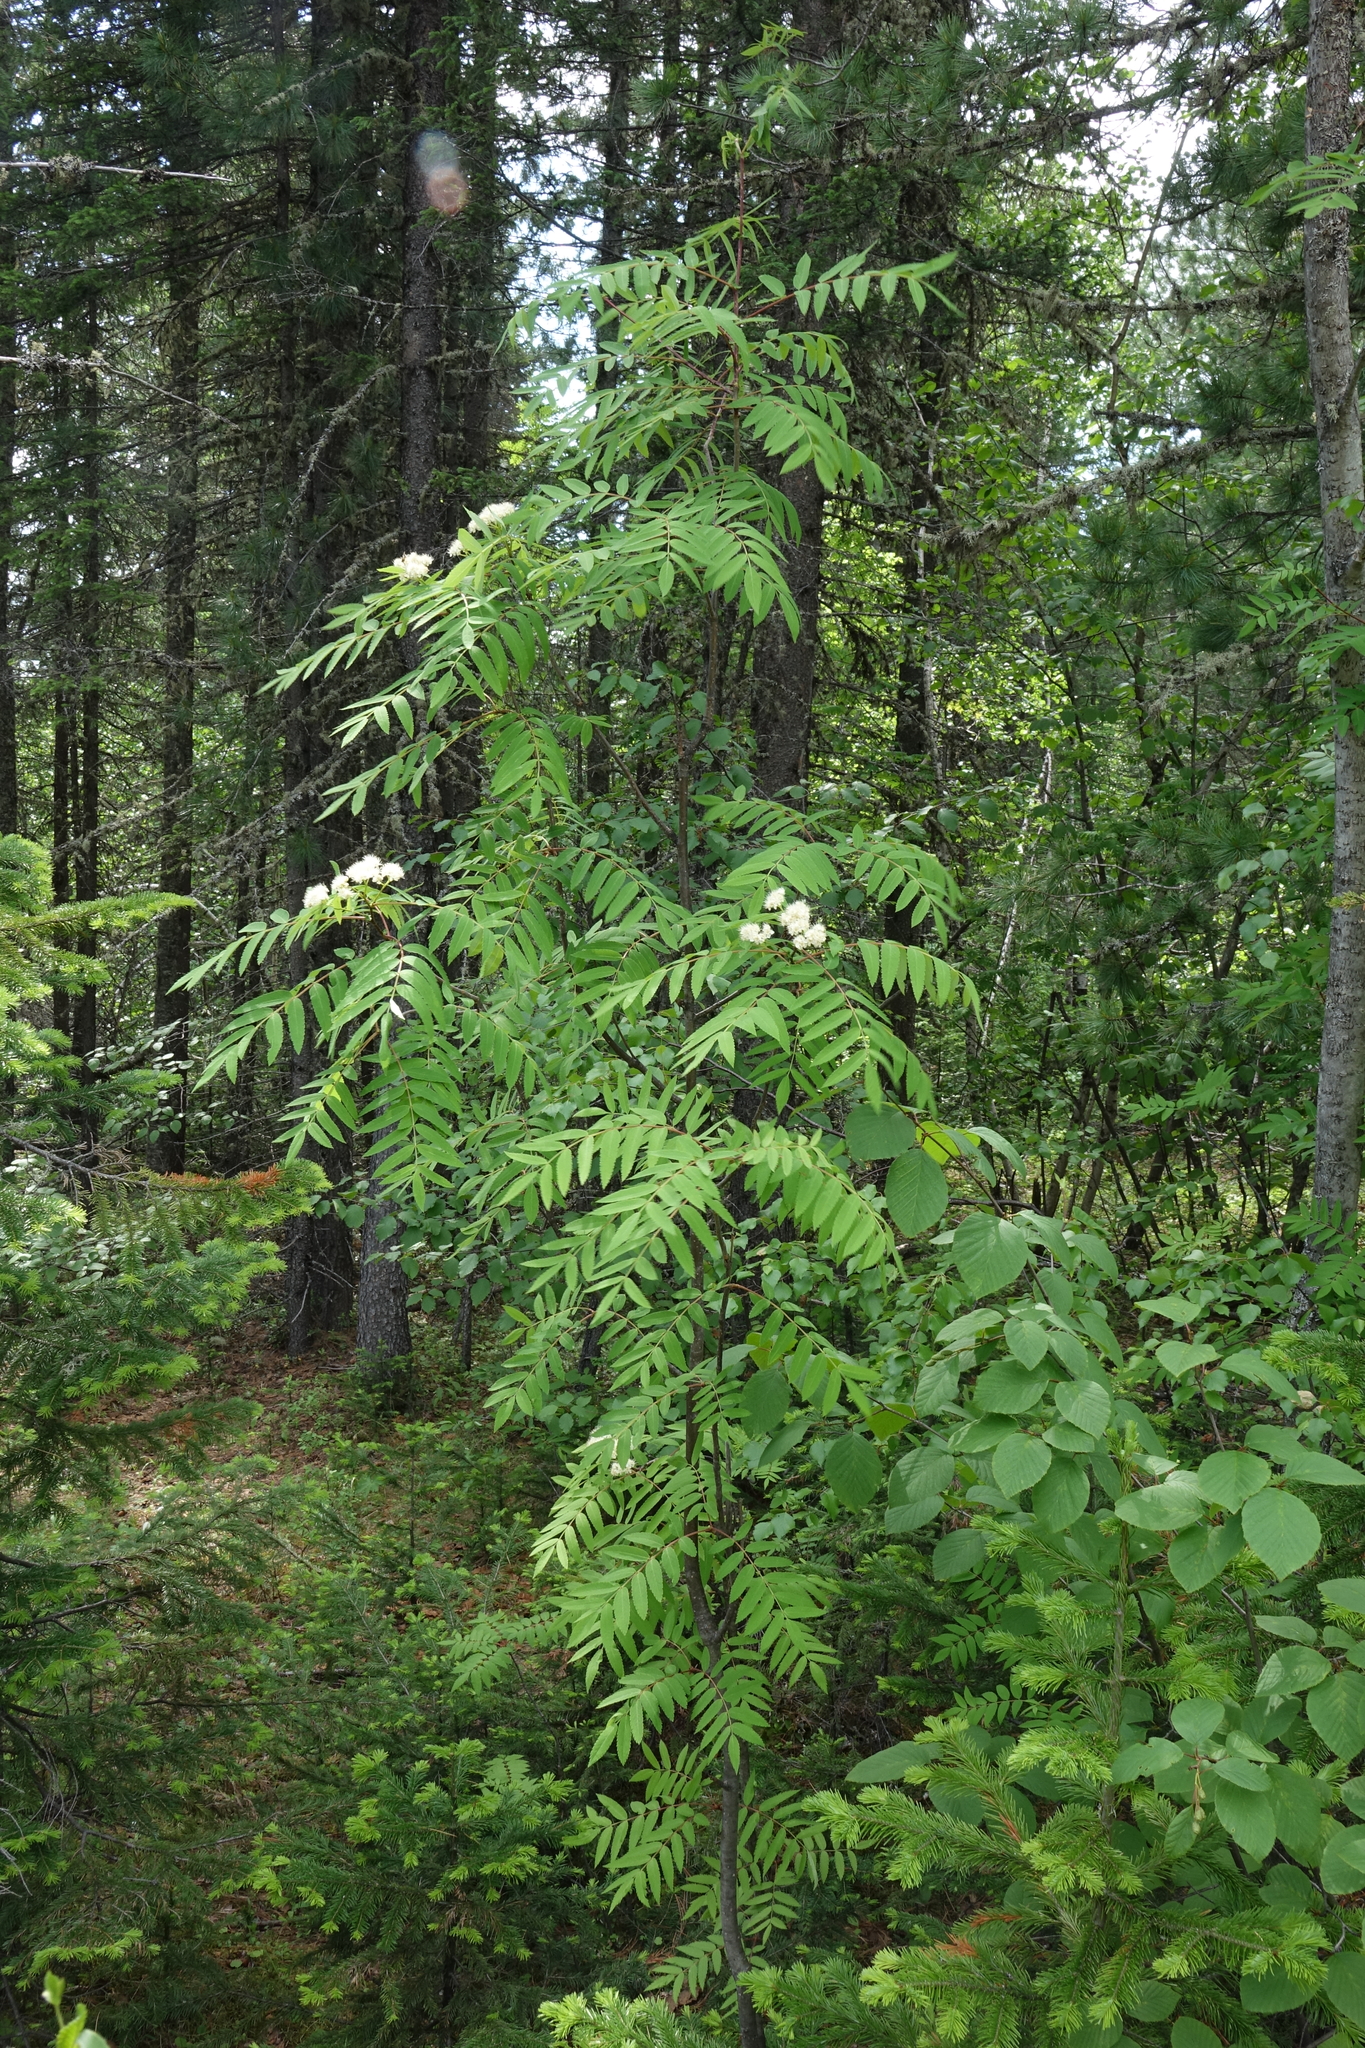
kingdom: Plantae
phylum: Tracheophyta
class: Magnoliopsida
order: Rosales
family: Rosaceae
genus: Sorbus
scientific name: Sorbus aucuparia
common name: Rowan
